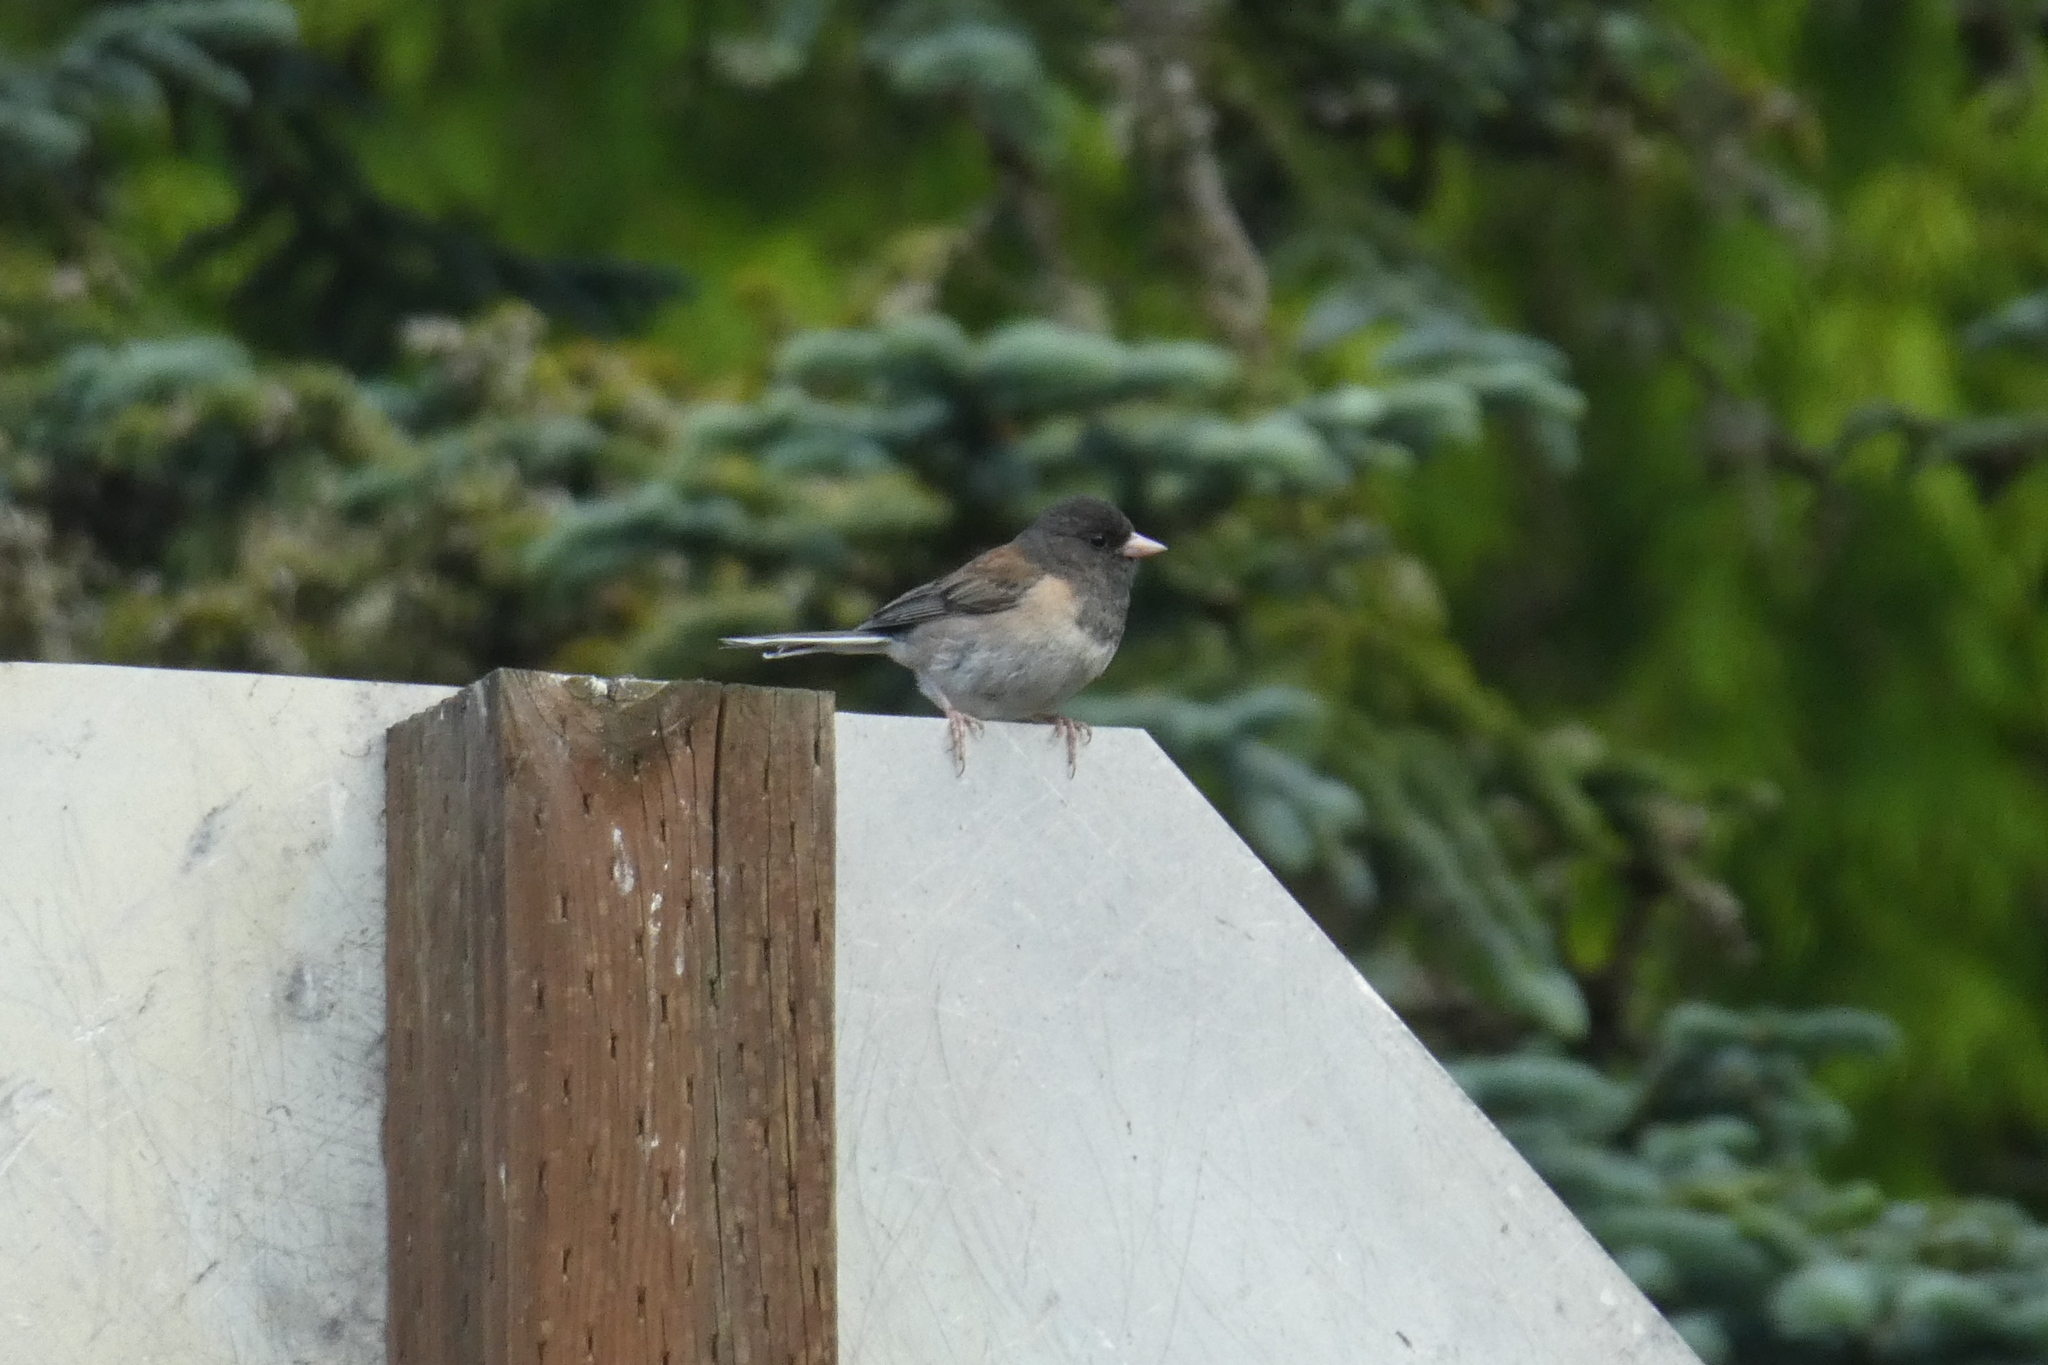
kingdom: Animalia
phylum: Chordata
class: Aves
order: Passeriformes
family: Passerellidae
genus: Junco
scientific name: Junco hyemalis
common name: Dark-eyed junco
